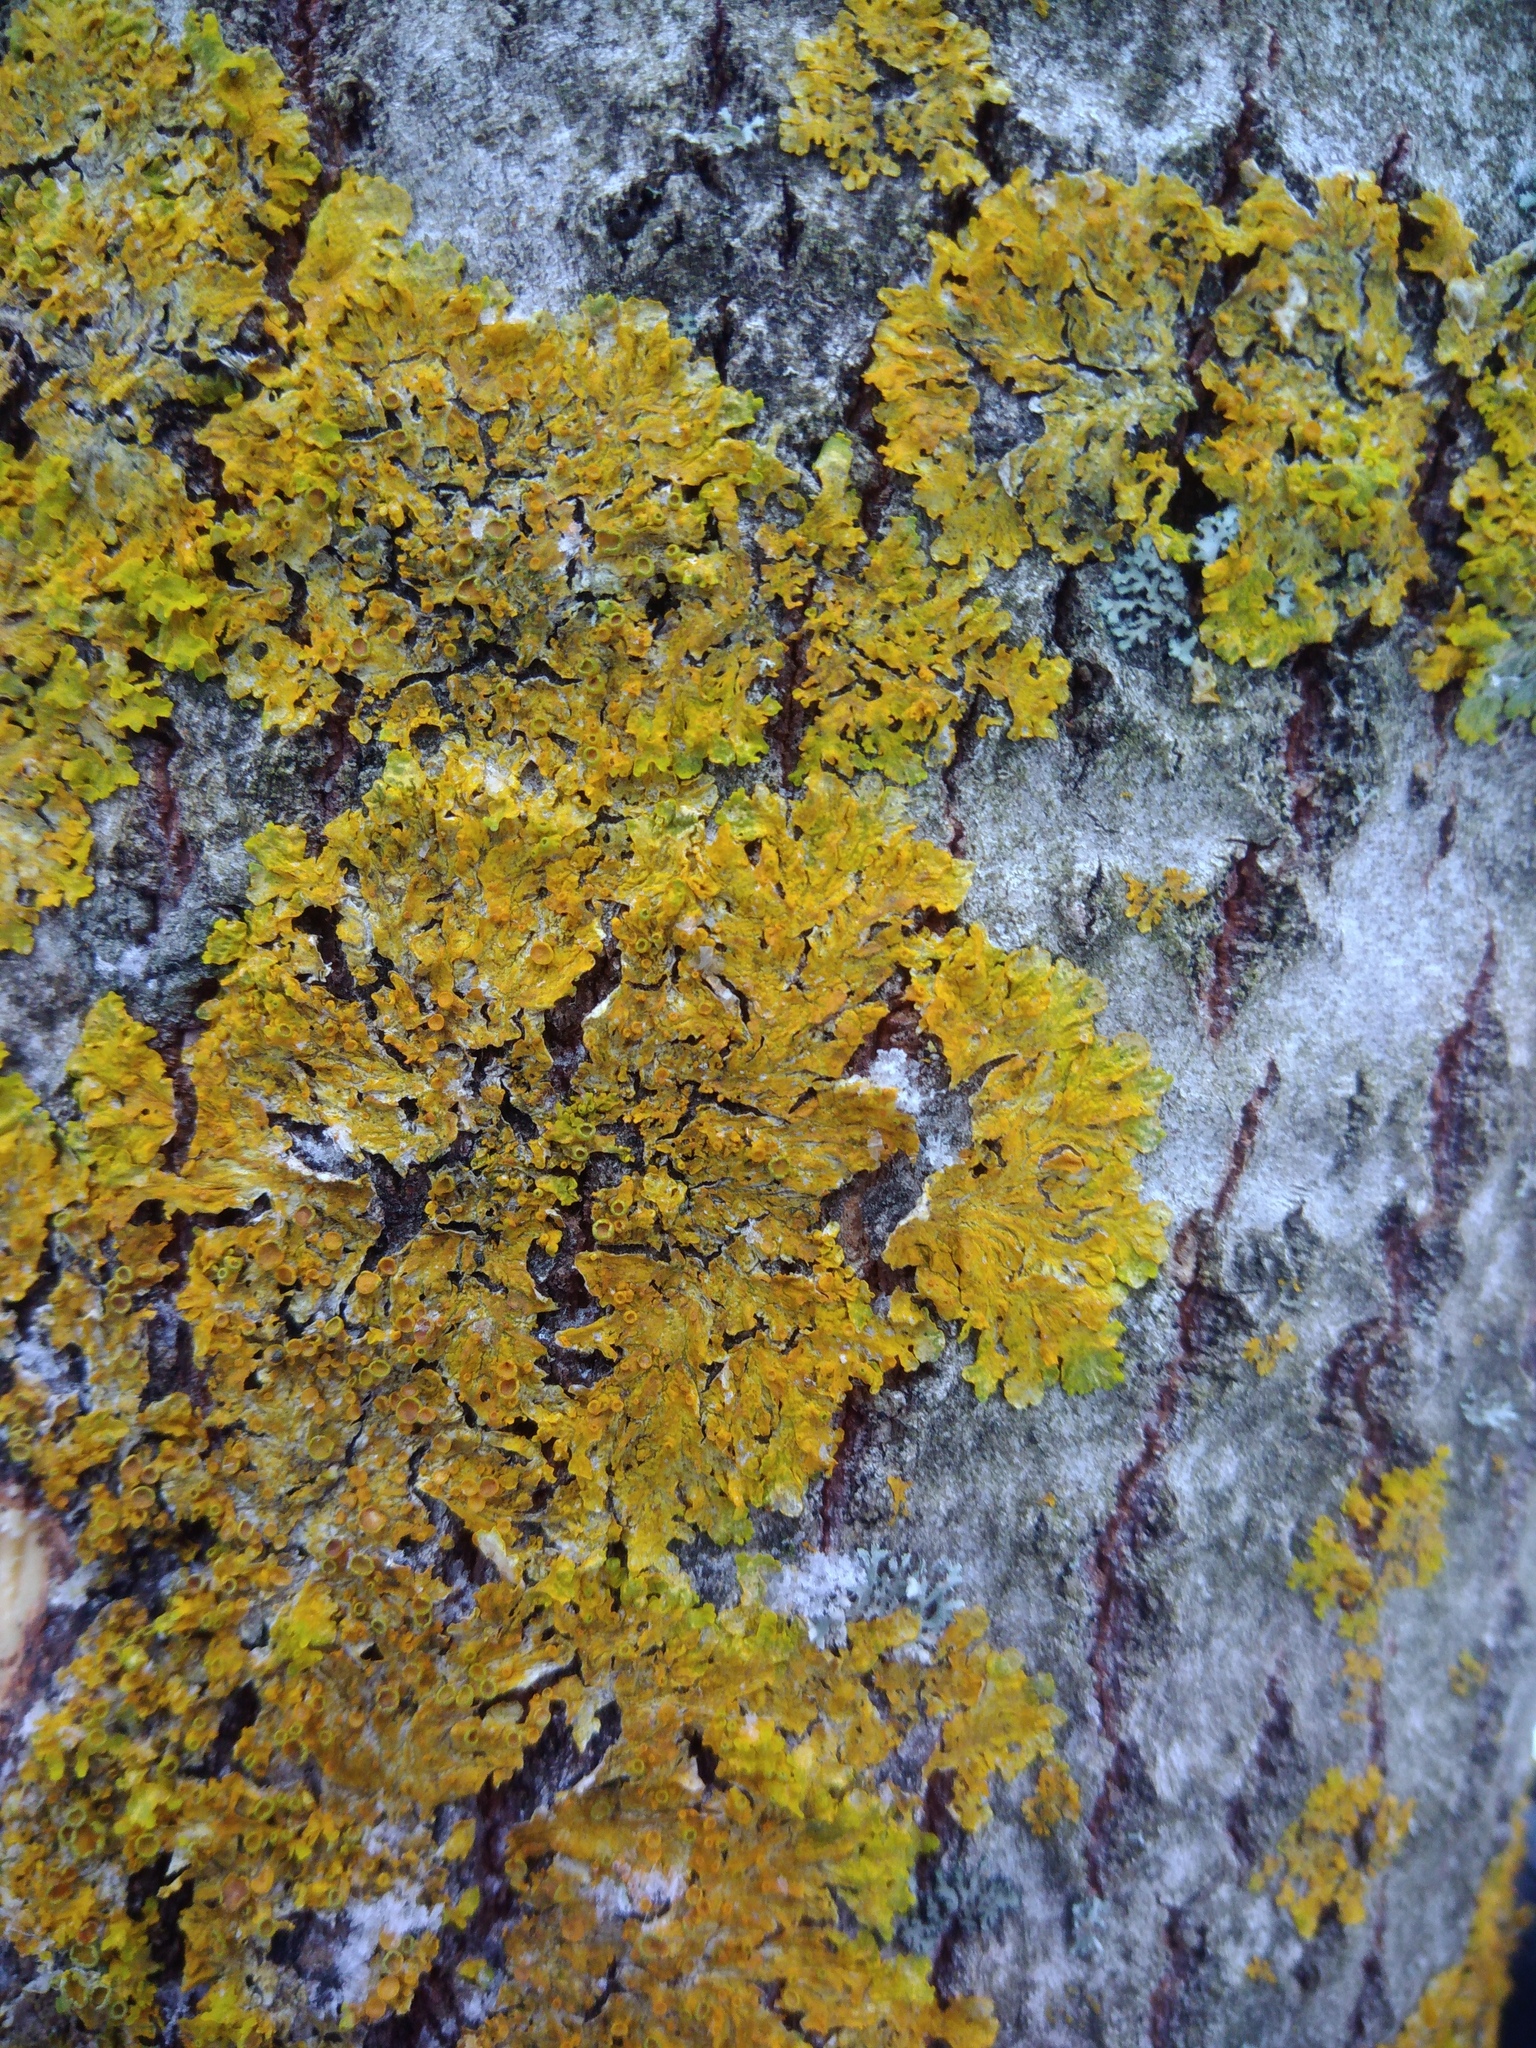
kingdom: Fungi
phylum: Ascomycota
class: Lecanoromycetes
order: Teloschistales
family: Teloschistaceae
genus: Xanthoria
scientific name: Xanthoria parietina
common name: Common orange lichen
